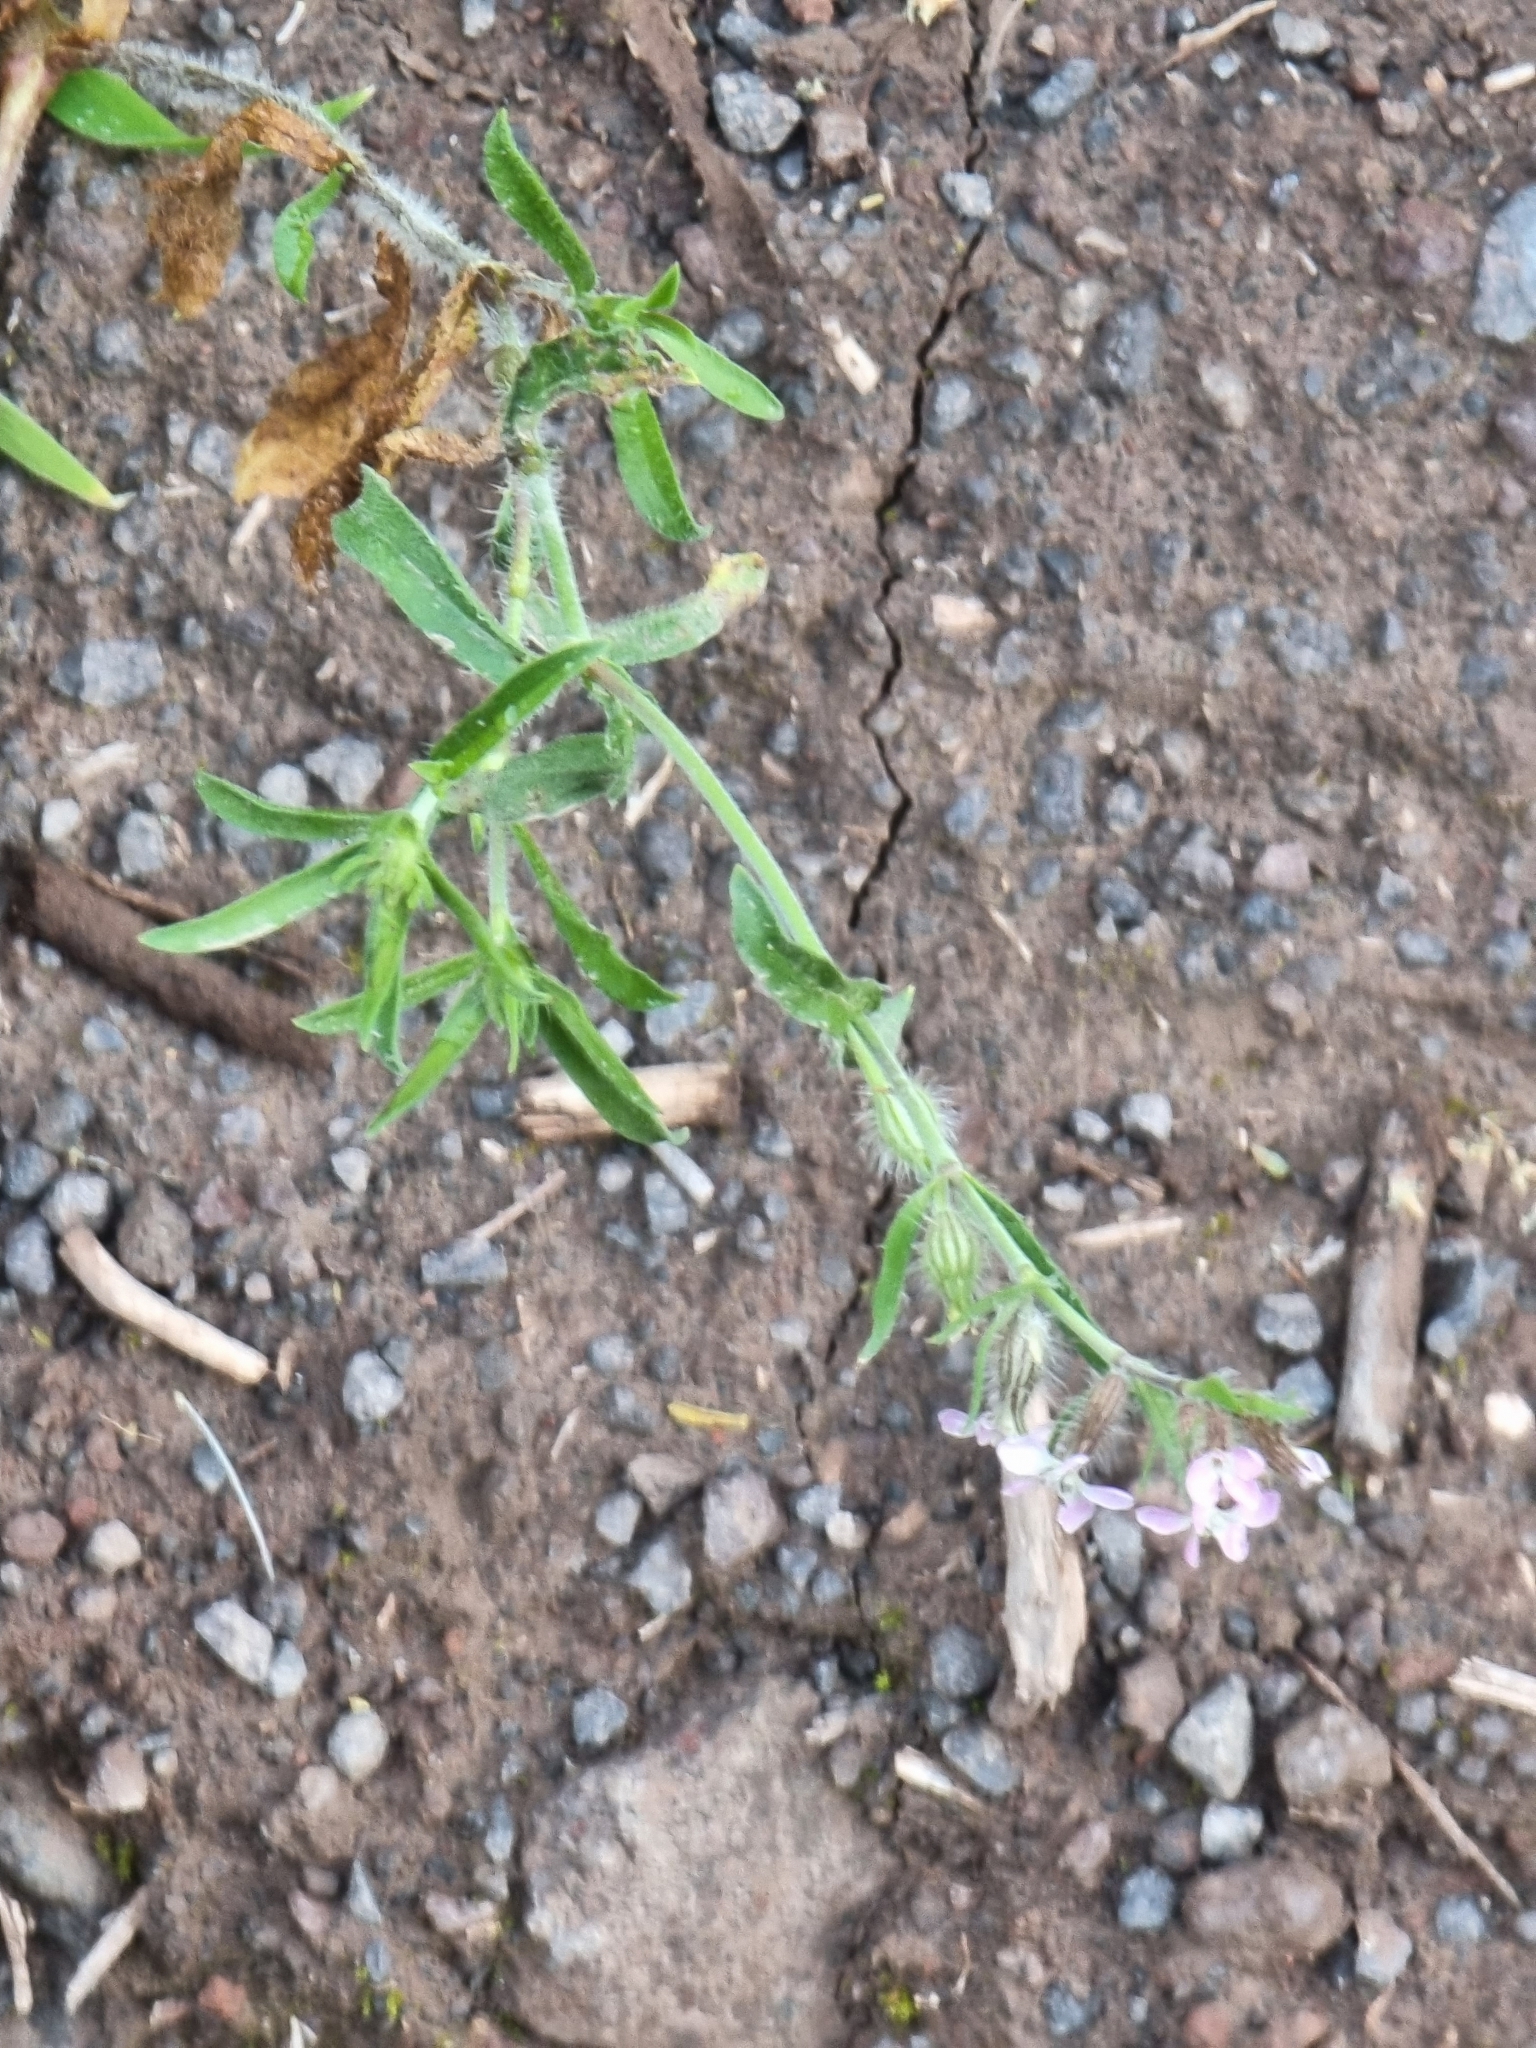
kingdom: Plantae
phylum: Tracheophyta
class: Magnoliopsida
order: Caryophyllales
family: Caryophyllaceae
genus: Silene
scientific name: Silene gallica
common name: Small-flowered catchfly
